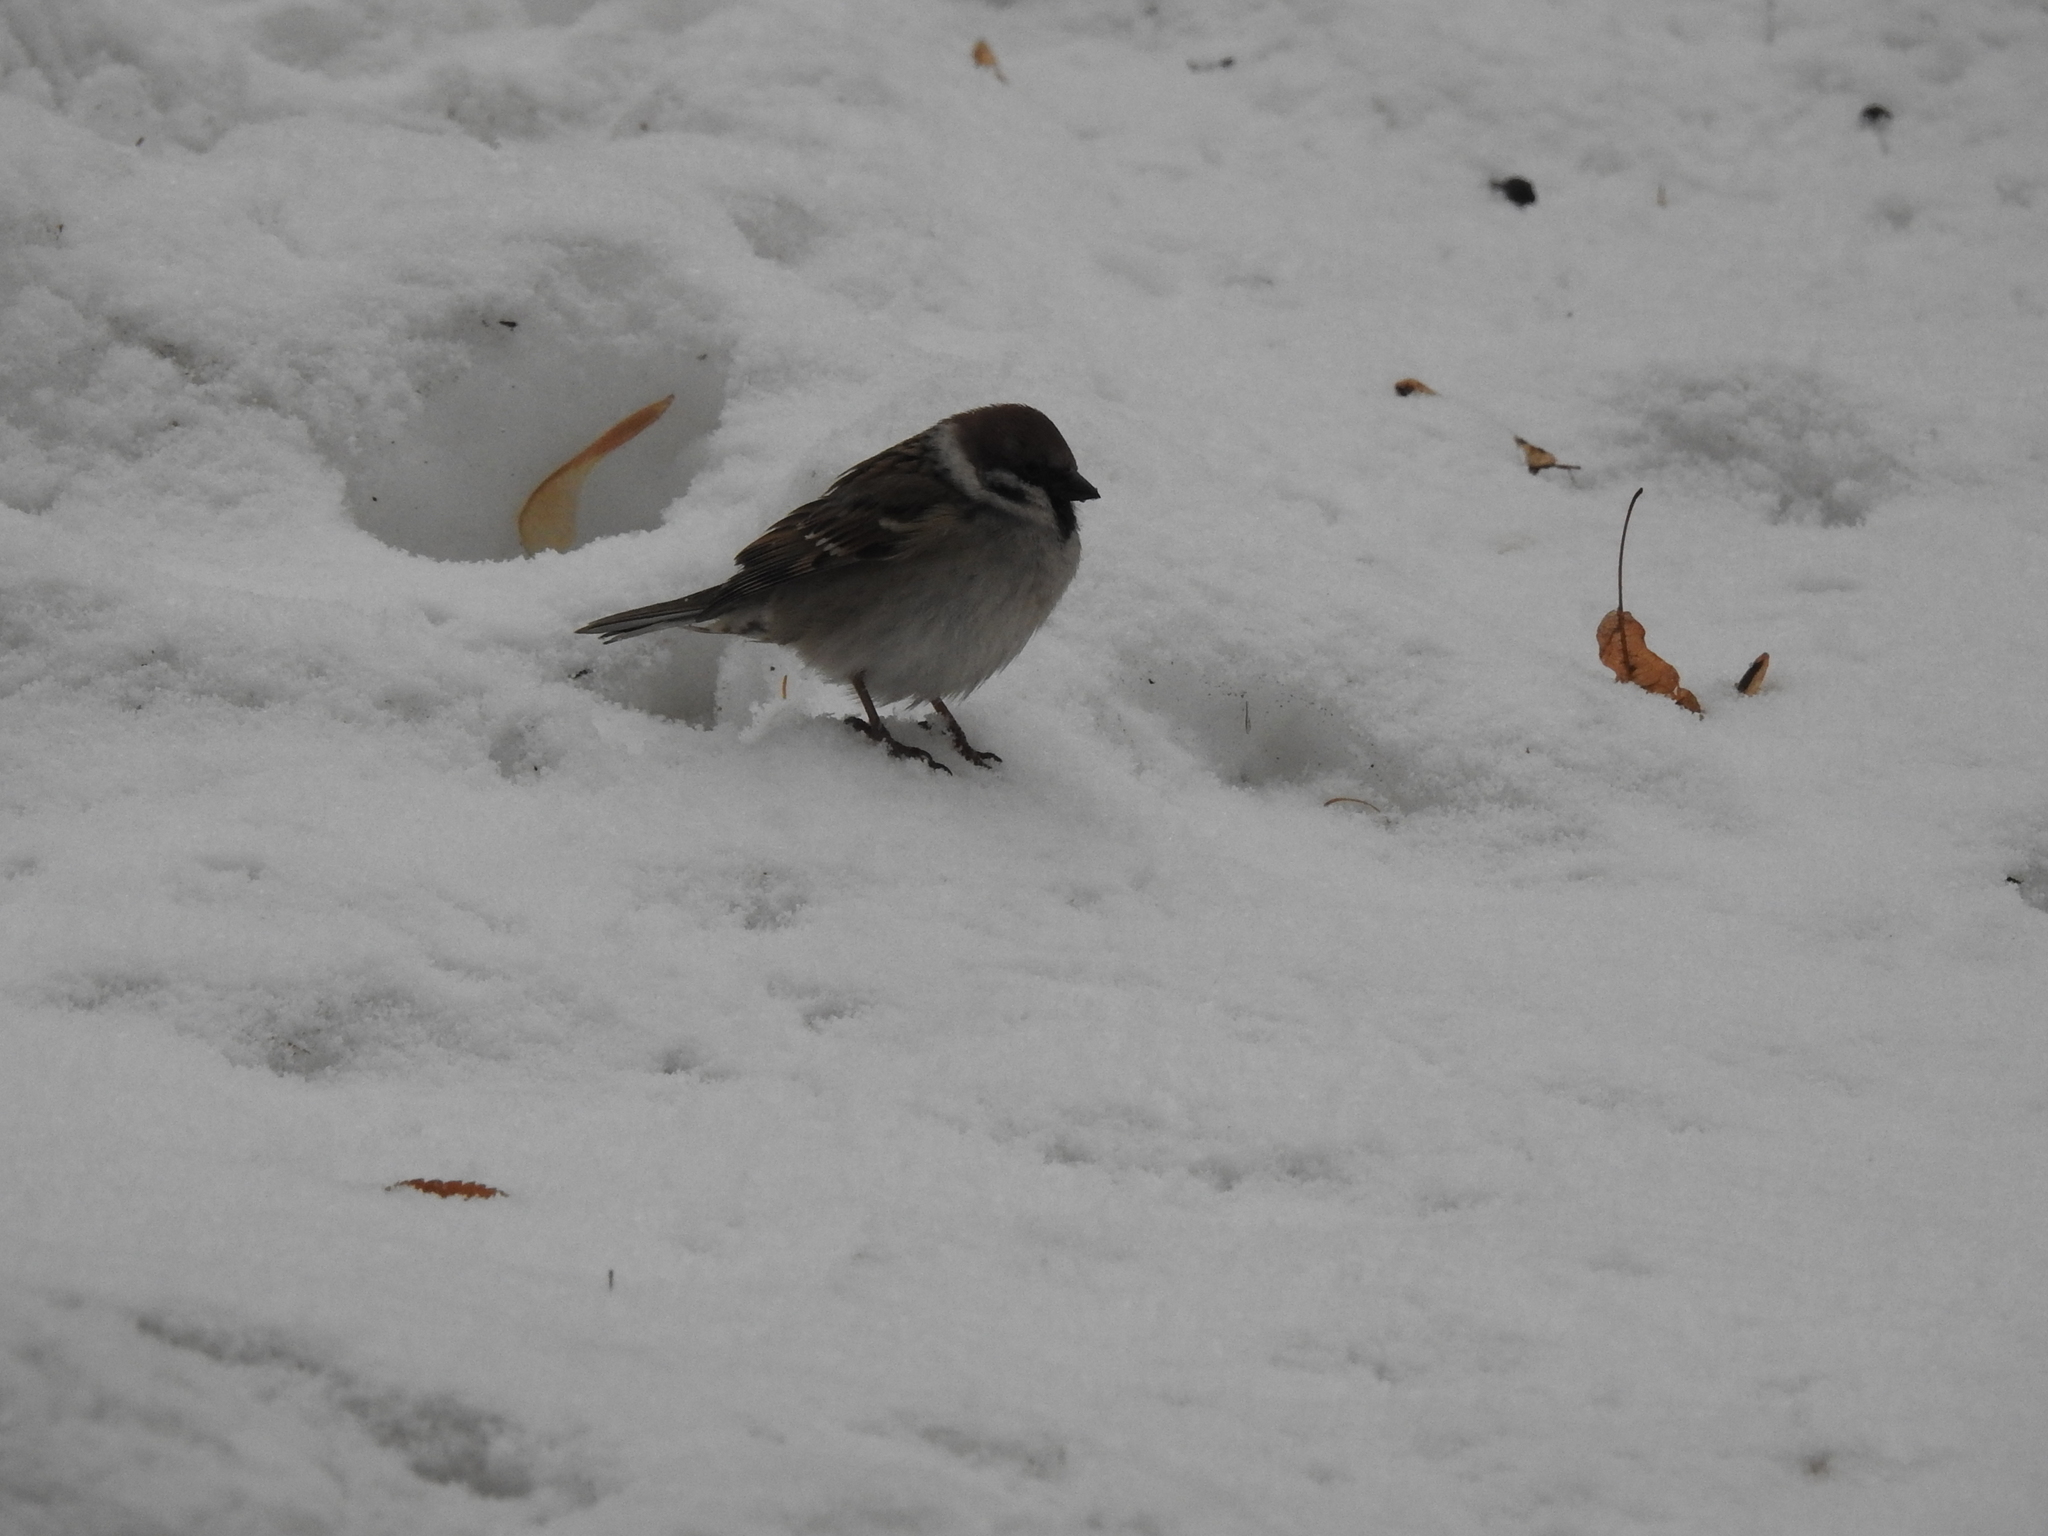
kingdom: Animalia
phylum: Chordata
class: Aves
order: Passeriformes
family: Passeridae
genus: Passer
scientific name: Passer montanus
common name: Eurasian tree sparrow
